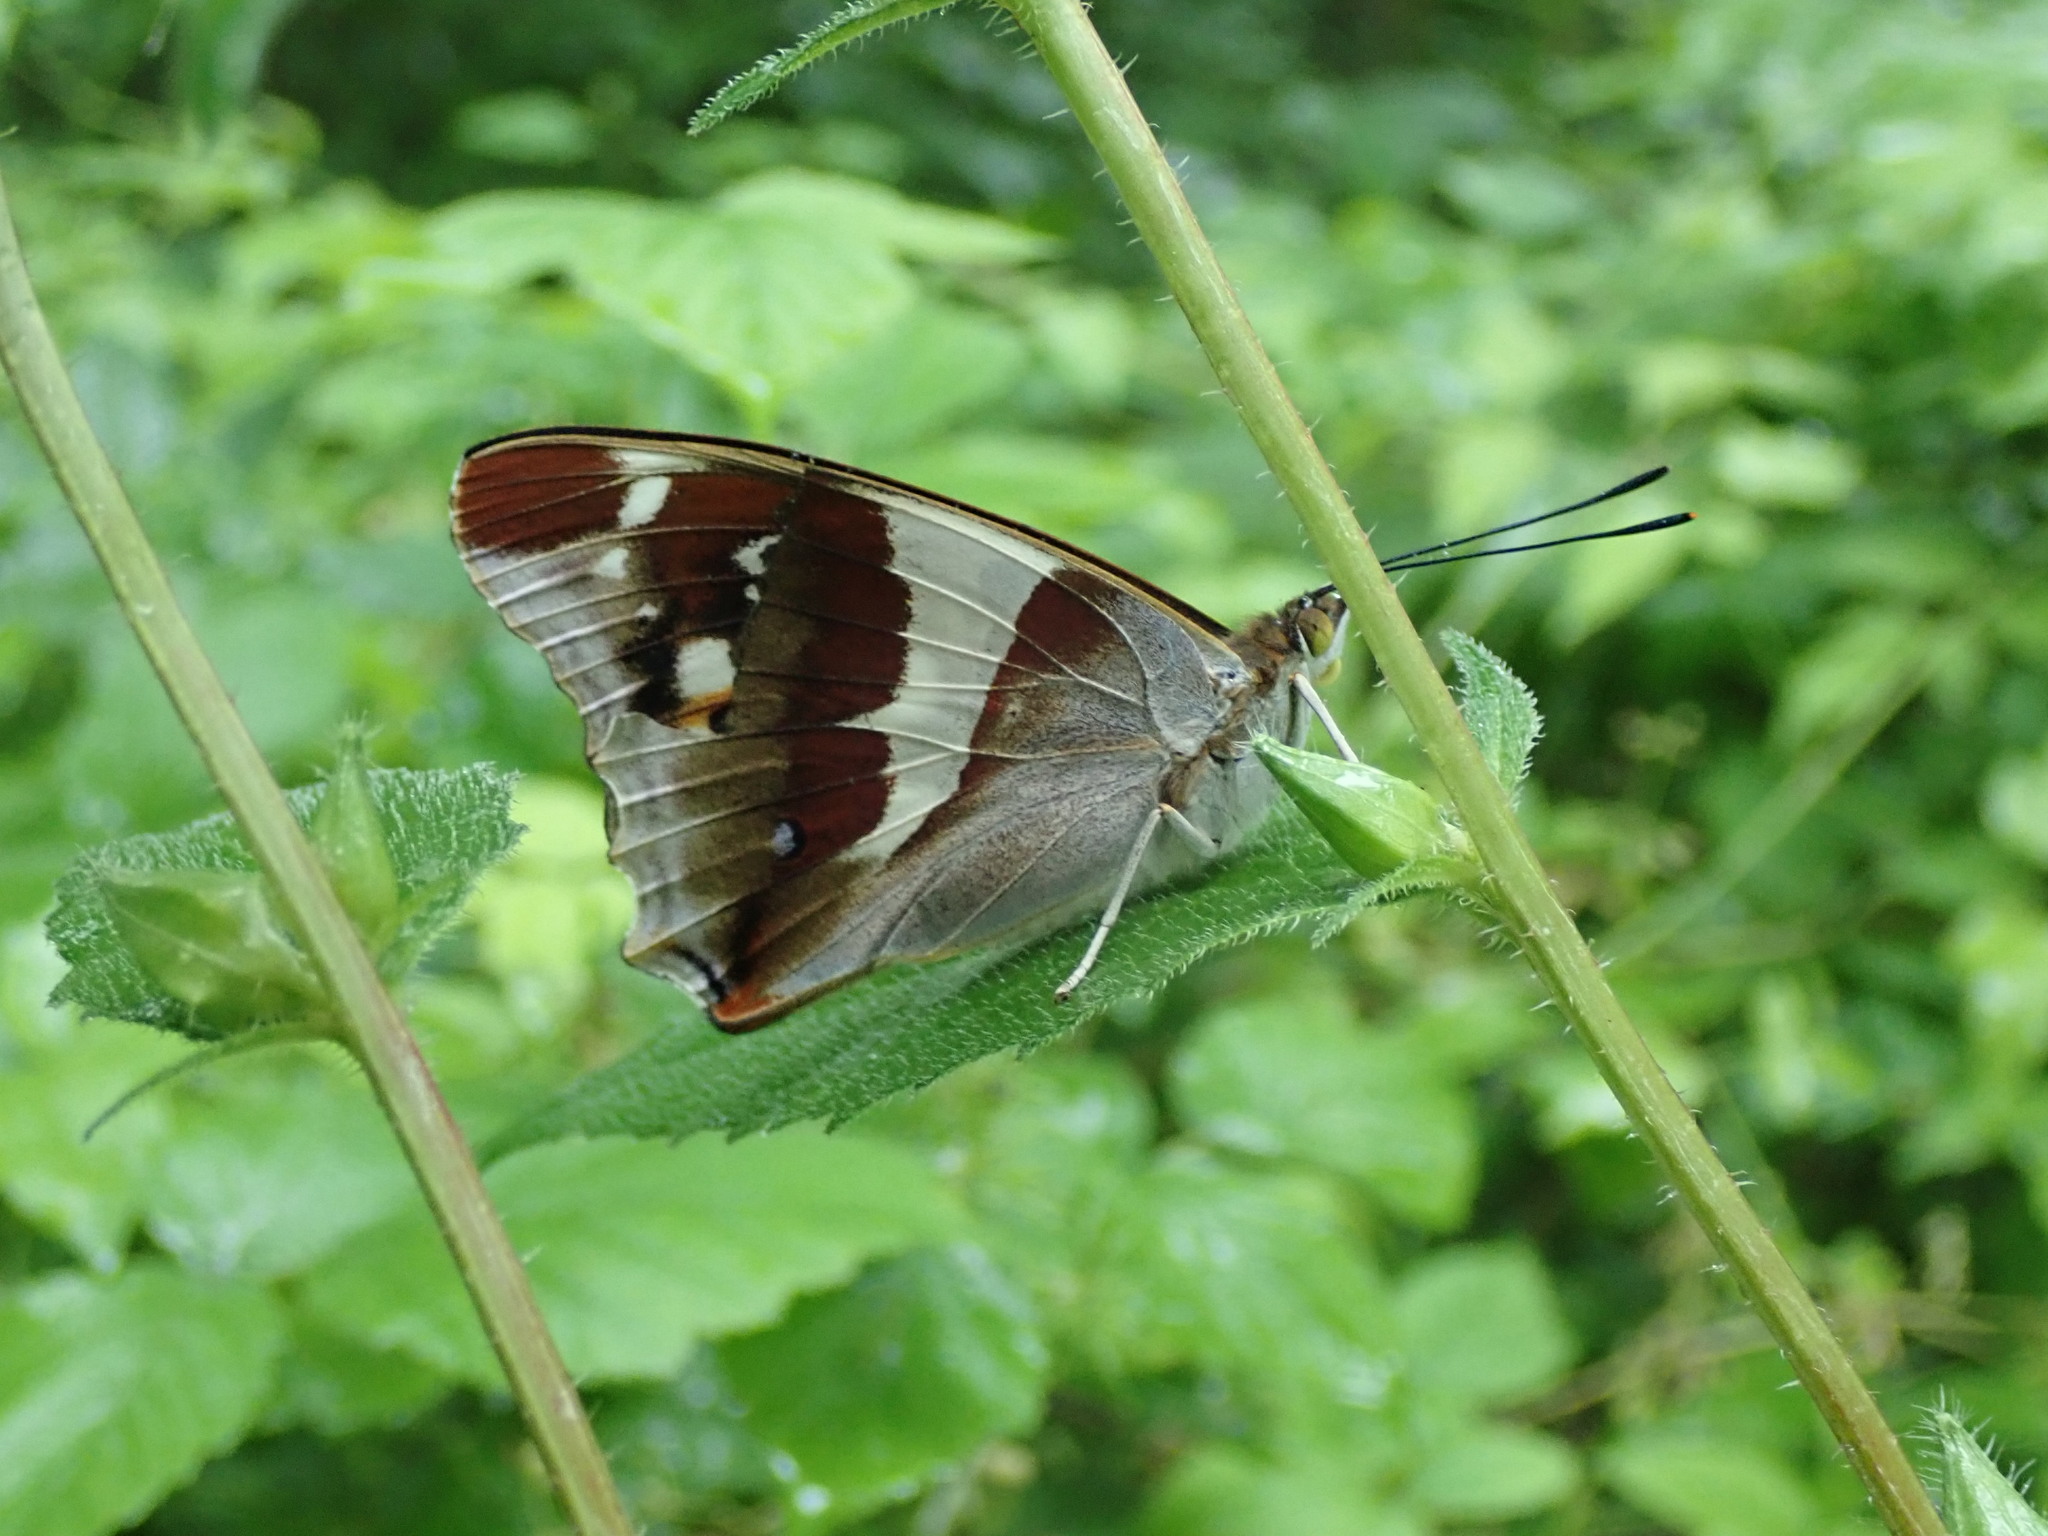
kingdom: Animalia
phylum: Arthropoda
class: Insecta
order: Lepidoptera
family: Nymphalidae
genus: Apatura
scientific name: Apatura iris
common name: Purple emperor
